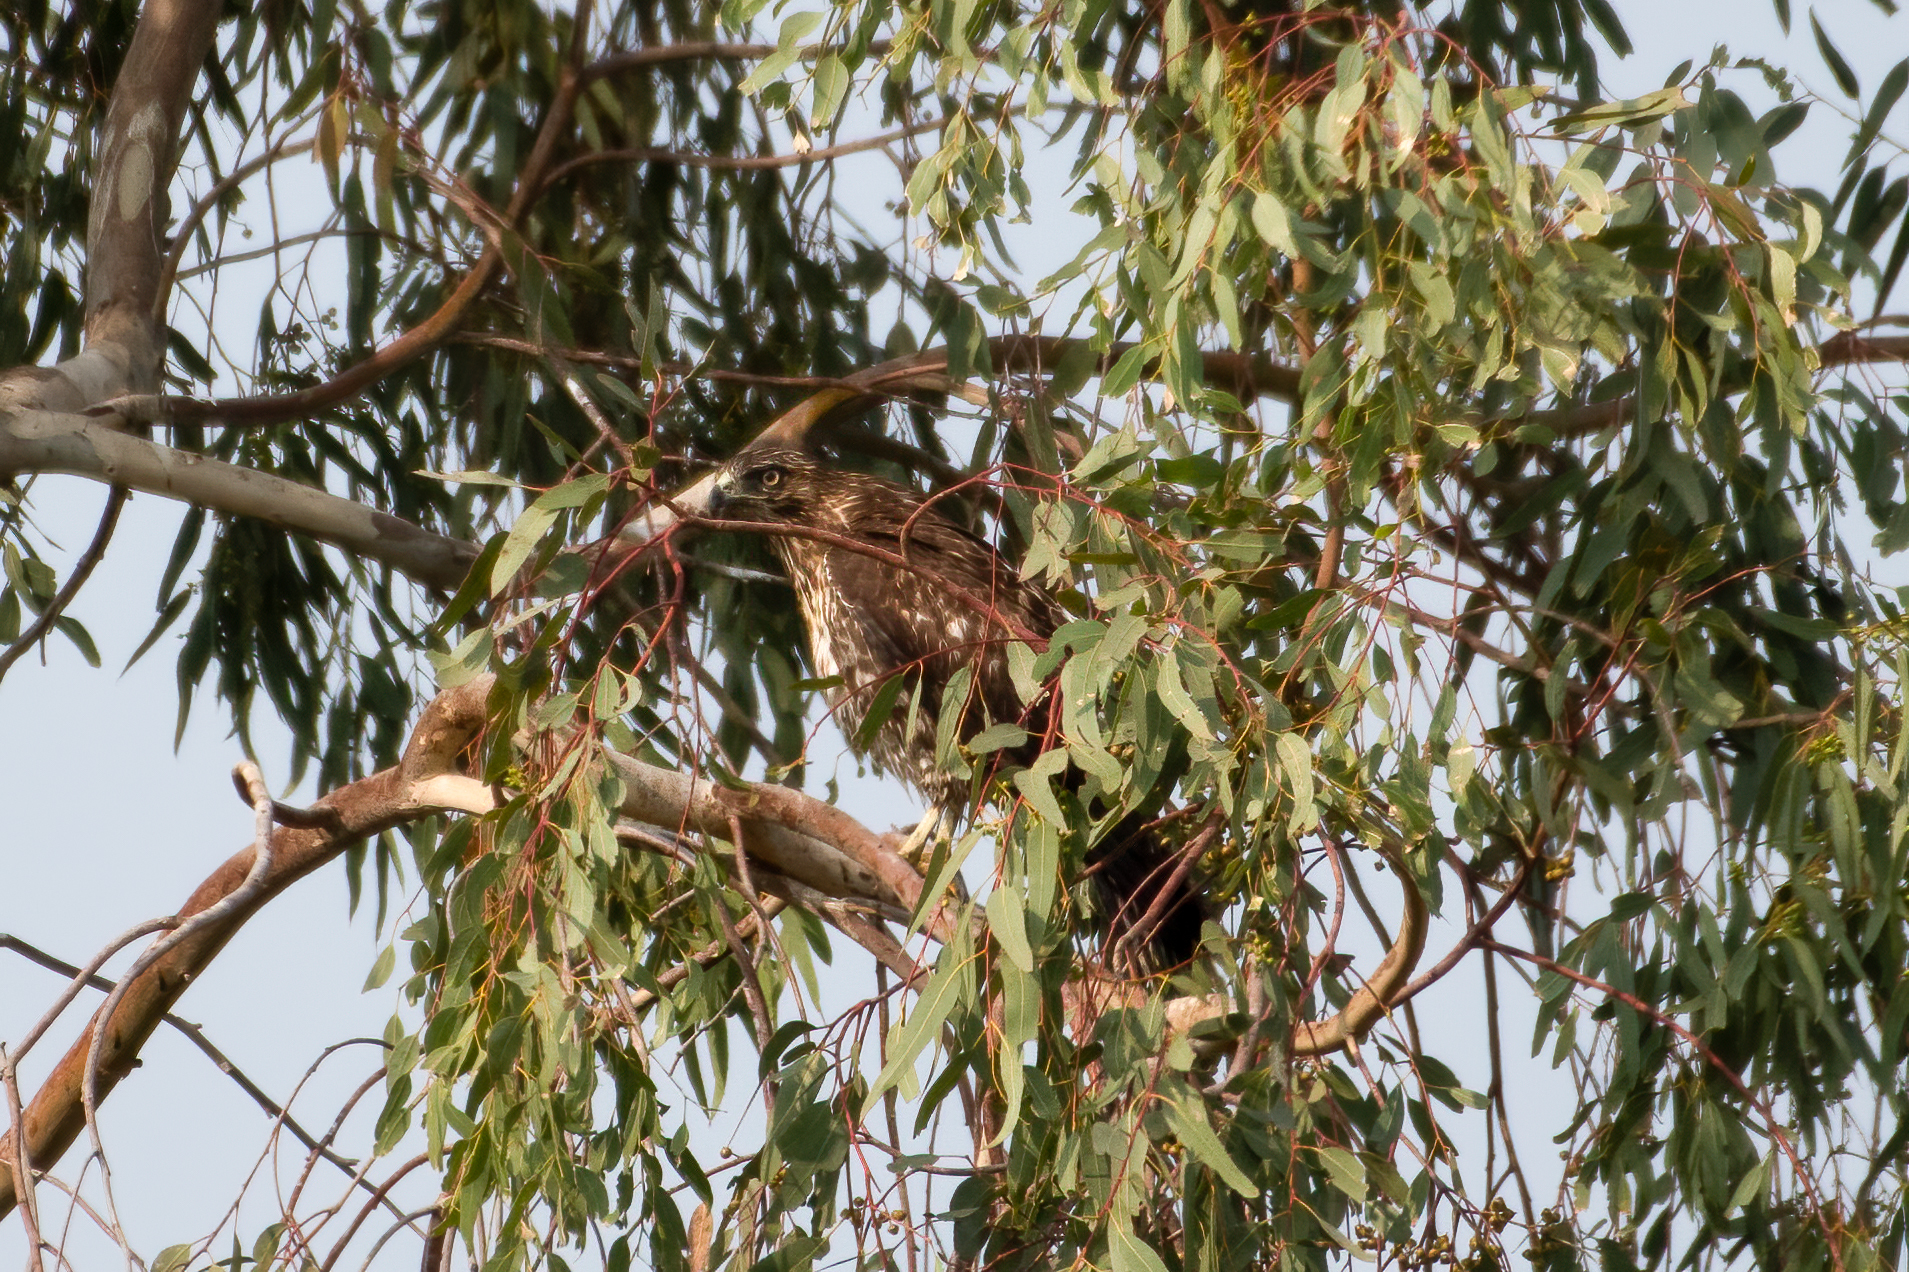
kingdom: Animalia
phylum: Chordata
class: Aves
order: Accipitriformes
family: Accipitridae
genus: Buteo
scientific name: Buteo jamaicensis
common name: Red-tailed hawk
